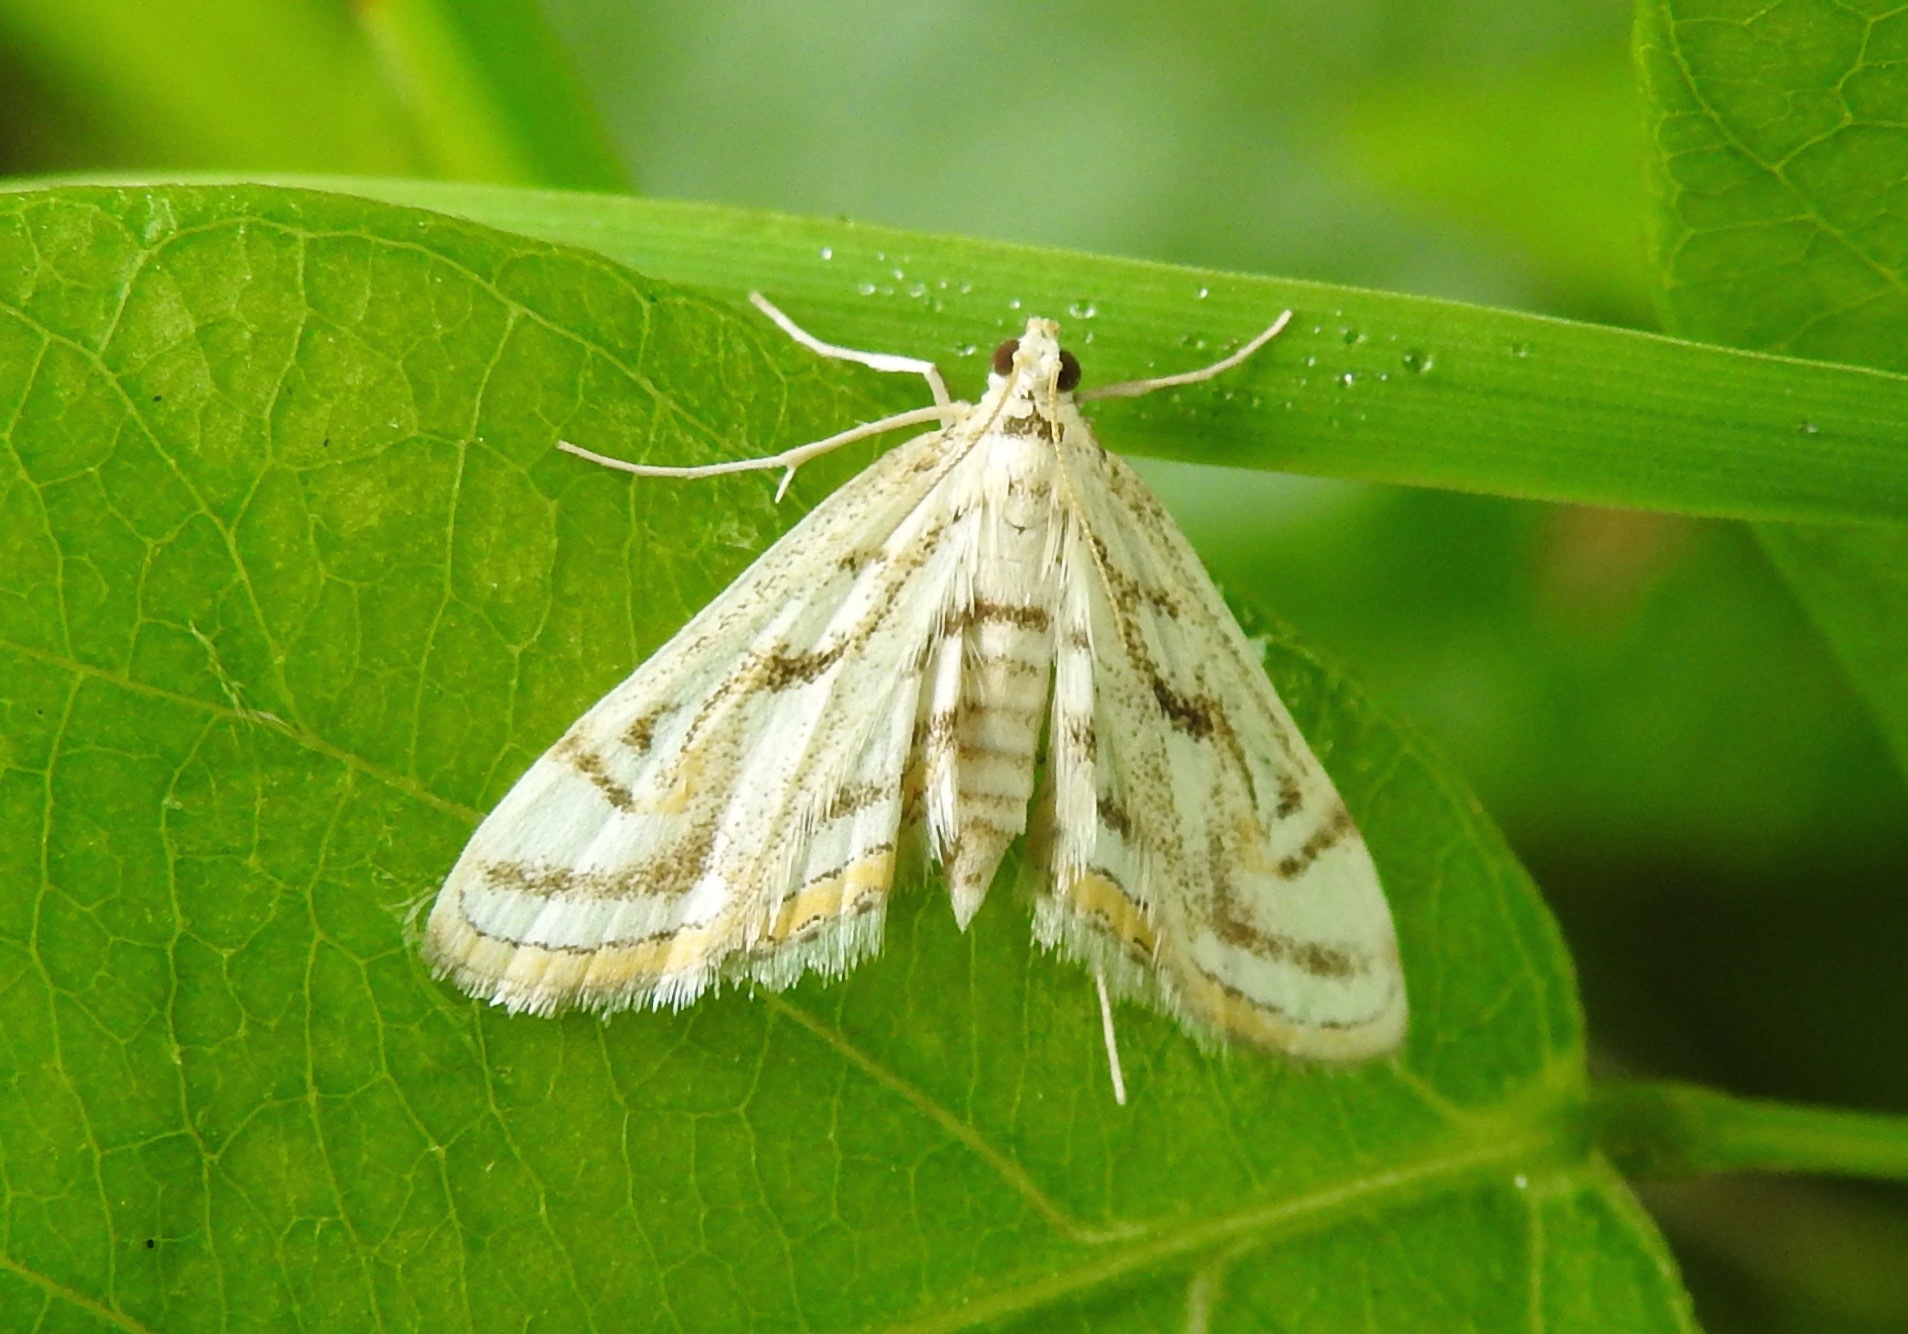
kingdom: Animalia
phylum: Arthropoda
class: Insecta
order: Lepidoptera
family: Crambidae
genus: Parapoynx
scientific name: Parapoynx badiusalis
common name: Chestnut-marked pondweed moth
